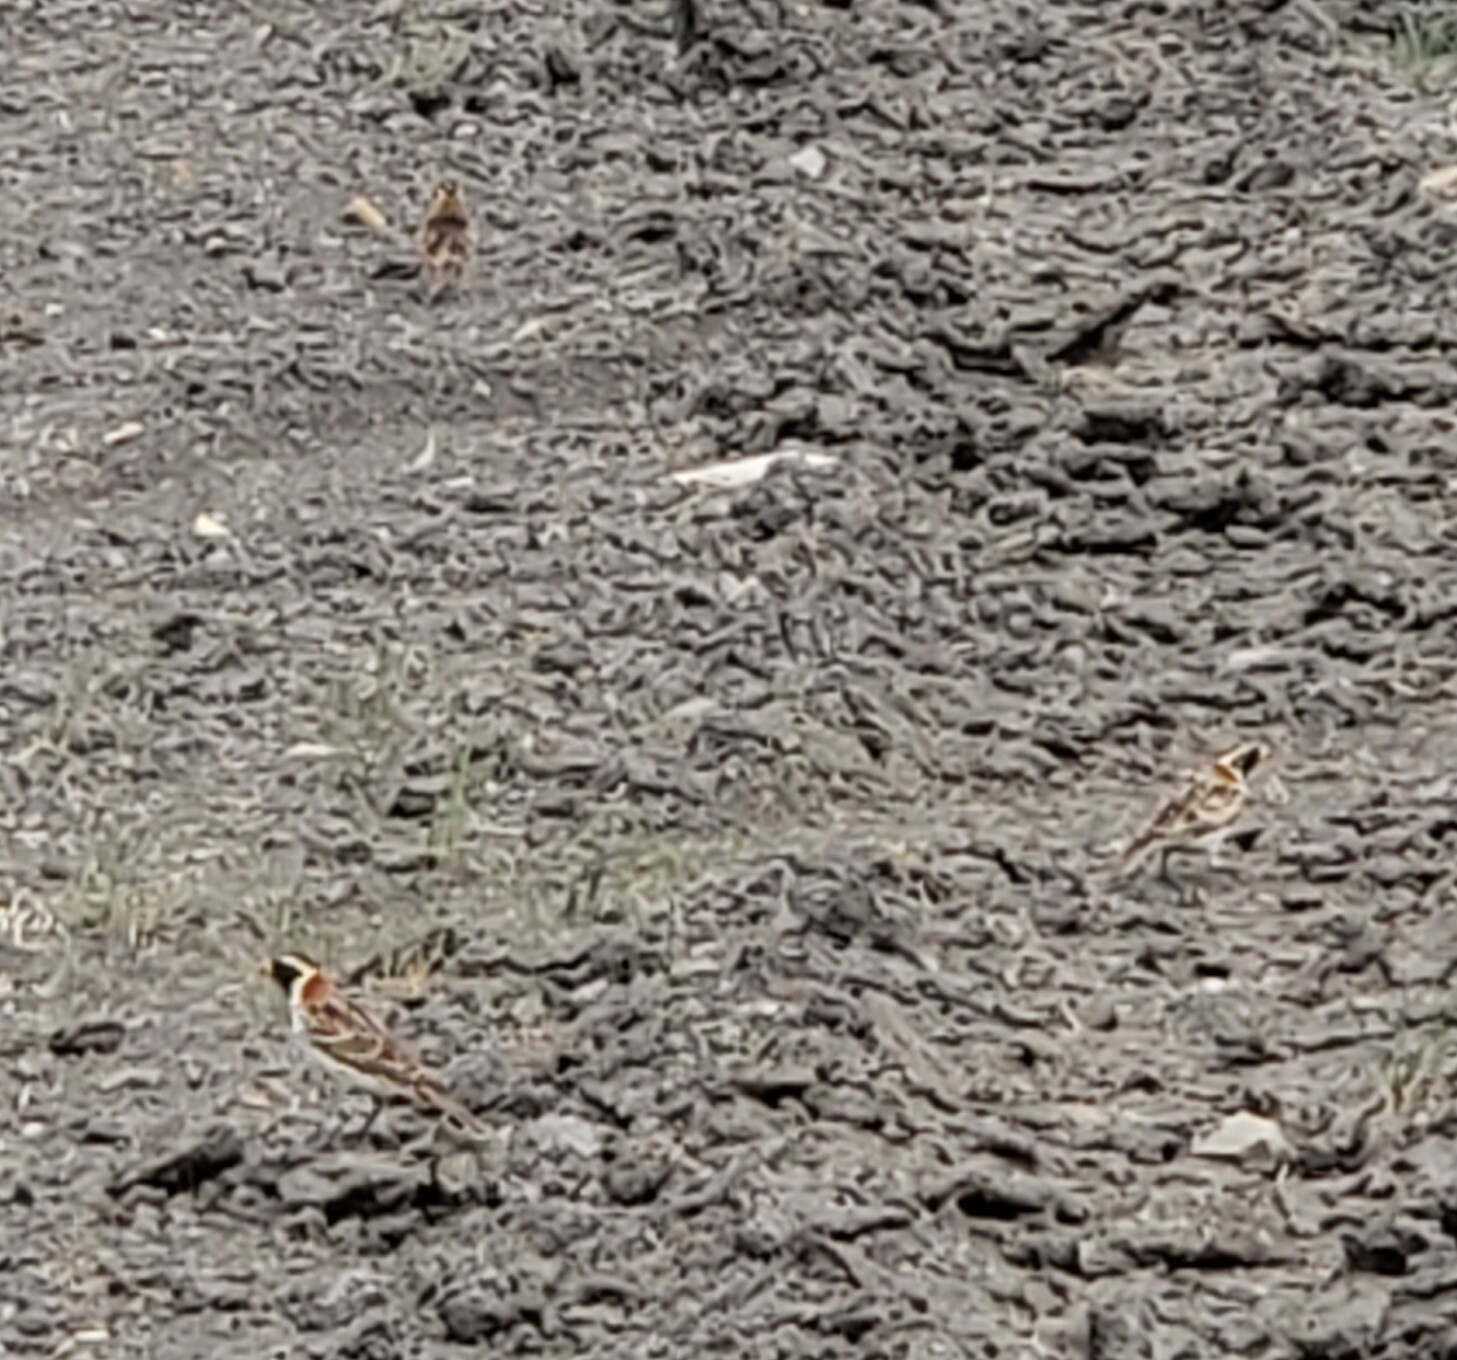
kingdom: Animalia
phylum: Chordata
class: Aves
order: Passeriformes
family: Calcariidae
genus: Calcarius
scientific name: Calcarius lapponicus
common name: Lapland longspur
